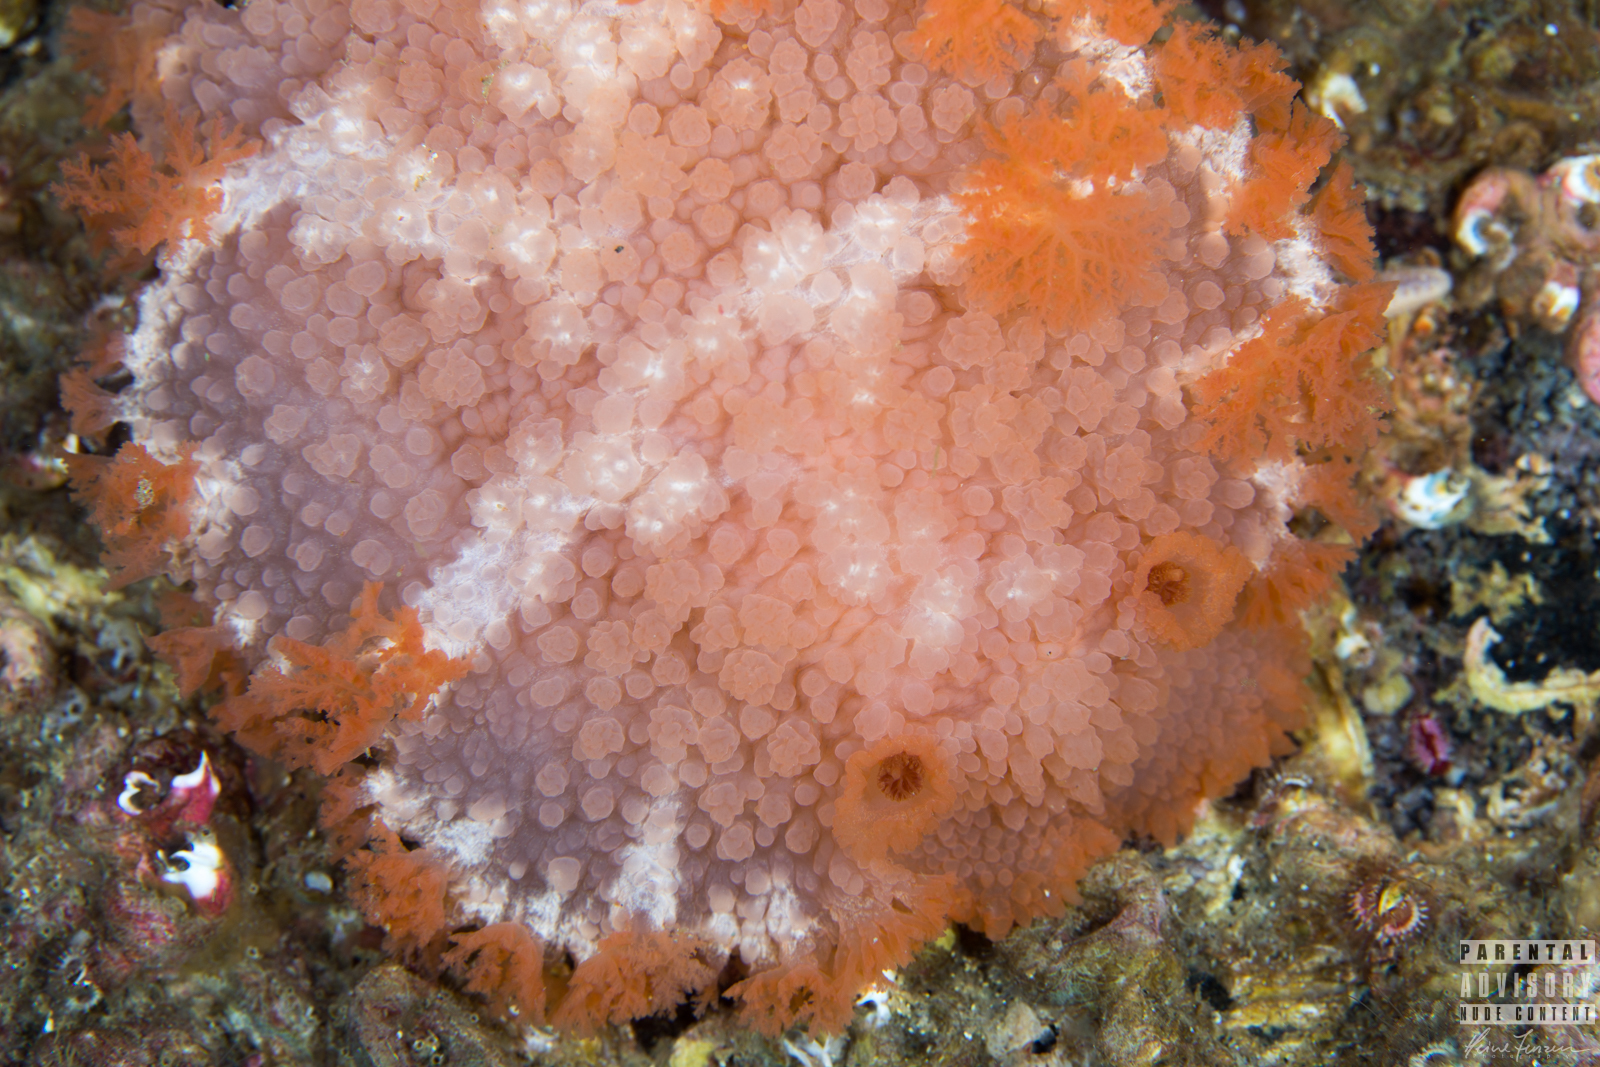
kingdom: Animalia
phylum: Mollusca
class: Gastropoda
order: Nudibranchia
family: Tritoniidae
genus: Tritonia
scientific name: Tritonia hombergii
